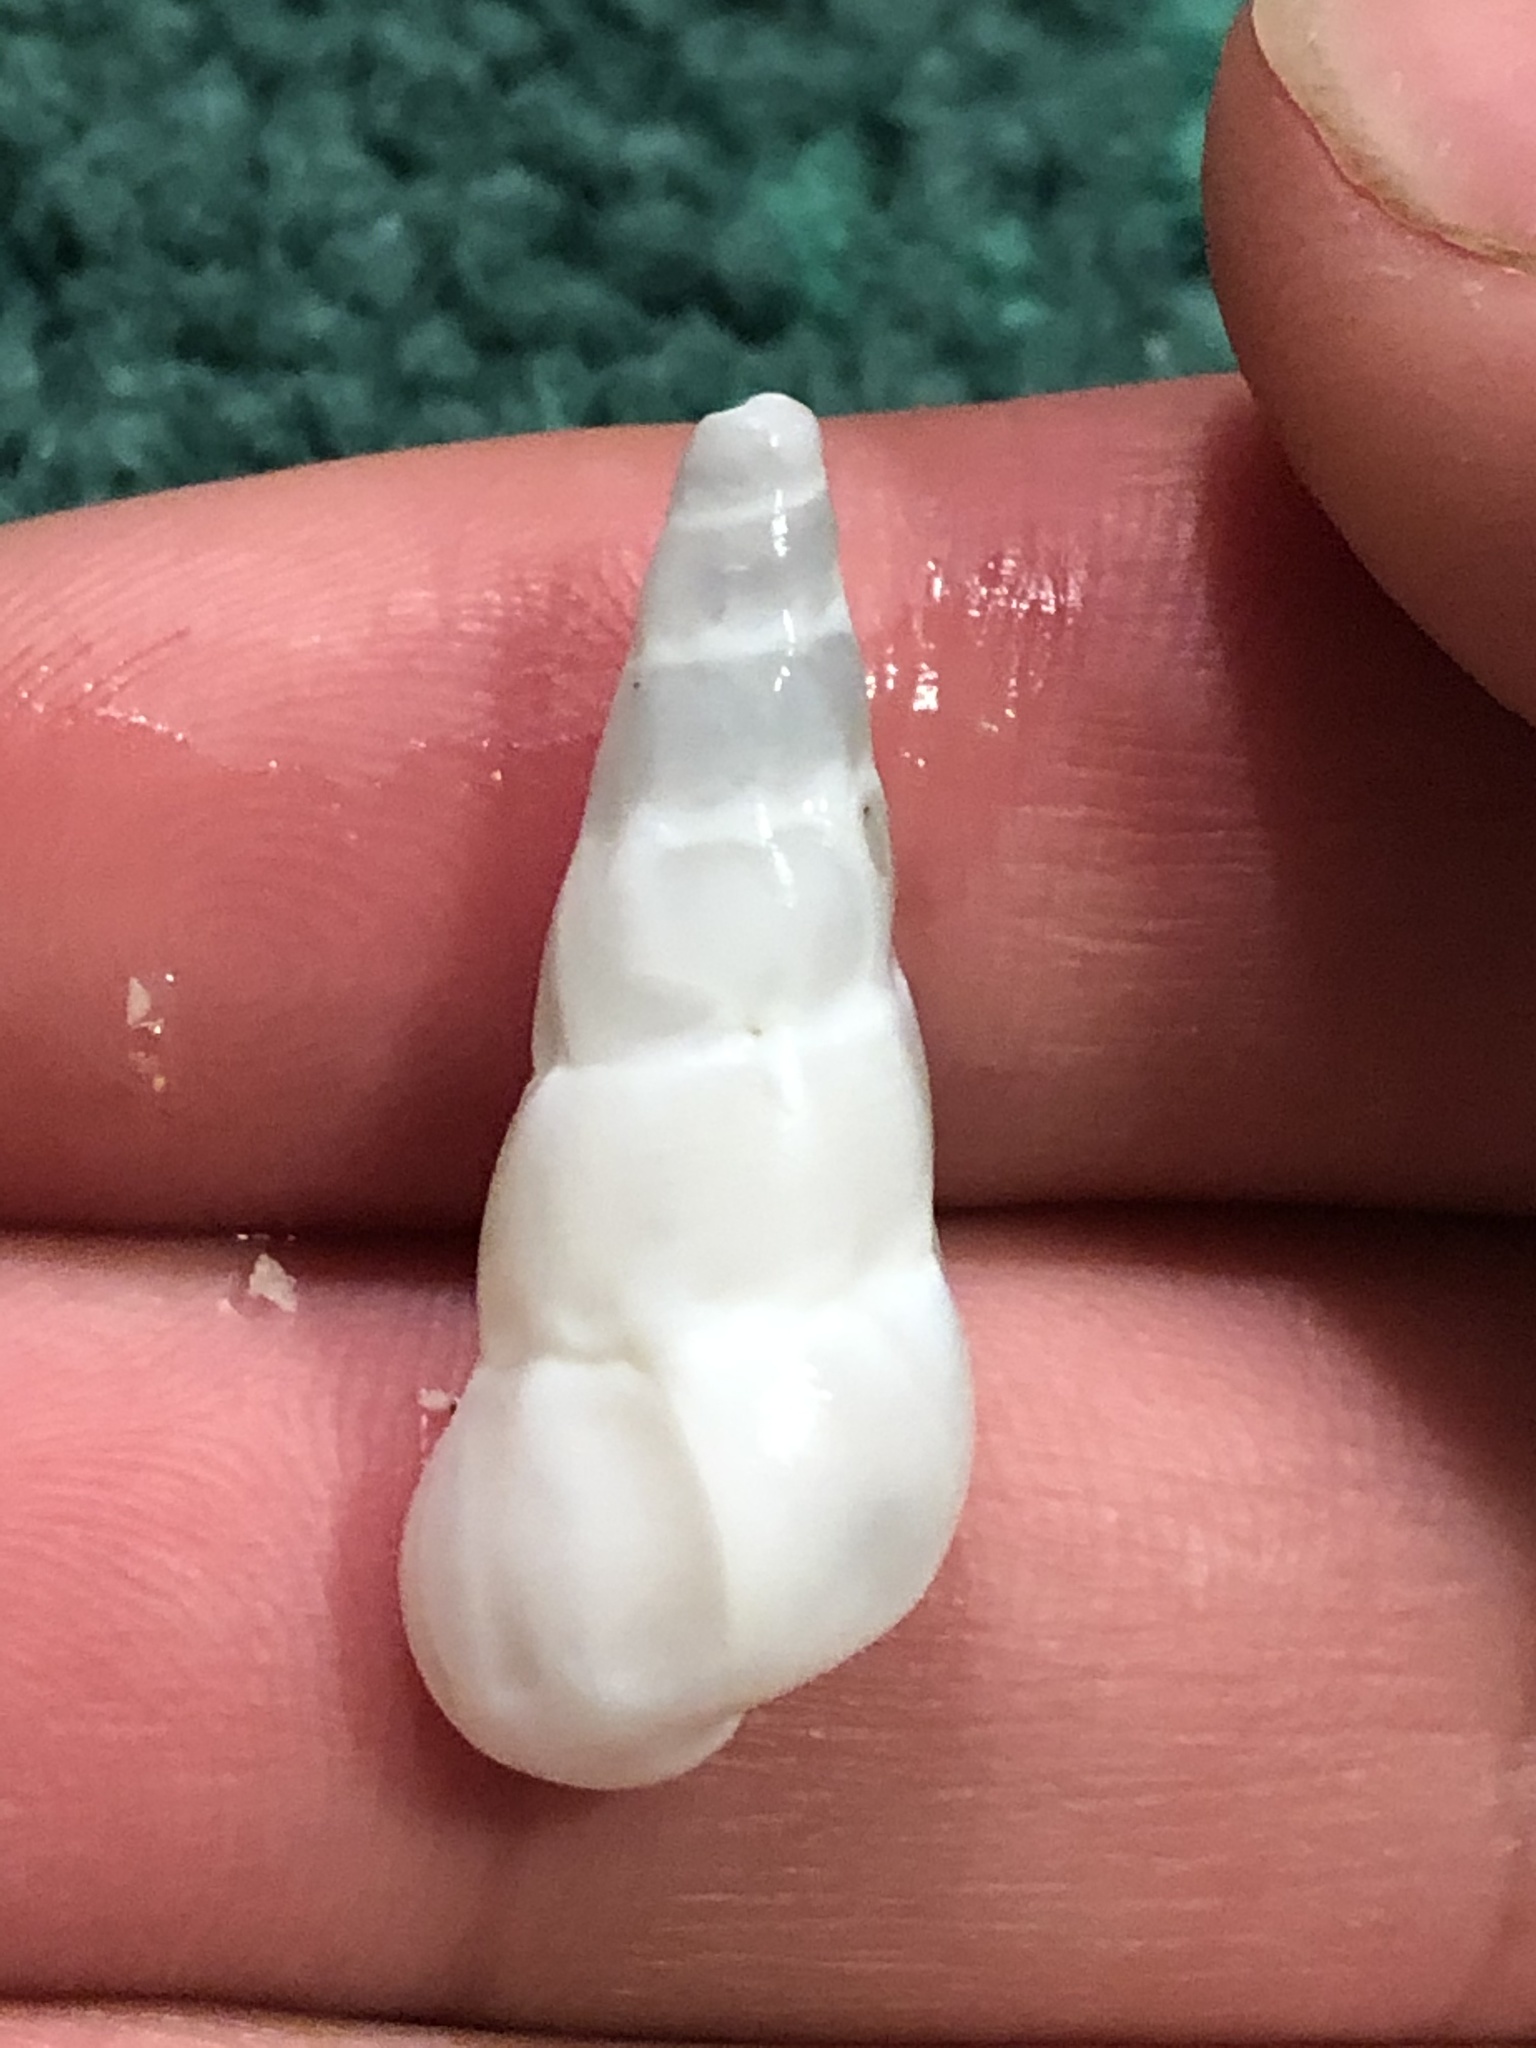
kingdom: Animalia
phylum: Mollusca
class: Gastropoda
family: Epitoniidae
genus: Opalia
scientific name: Opalia wroblewskyi
